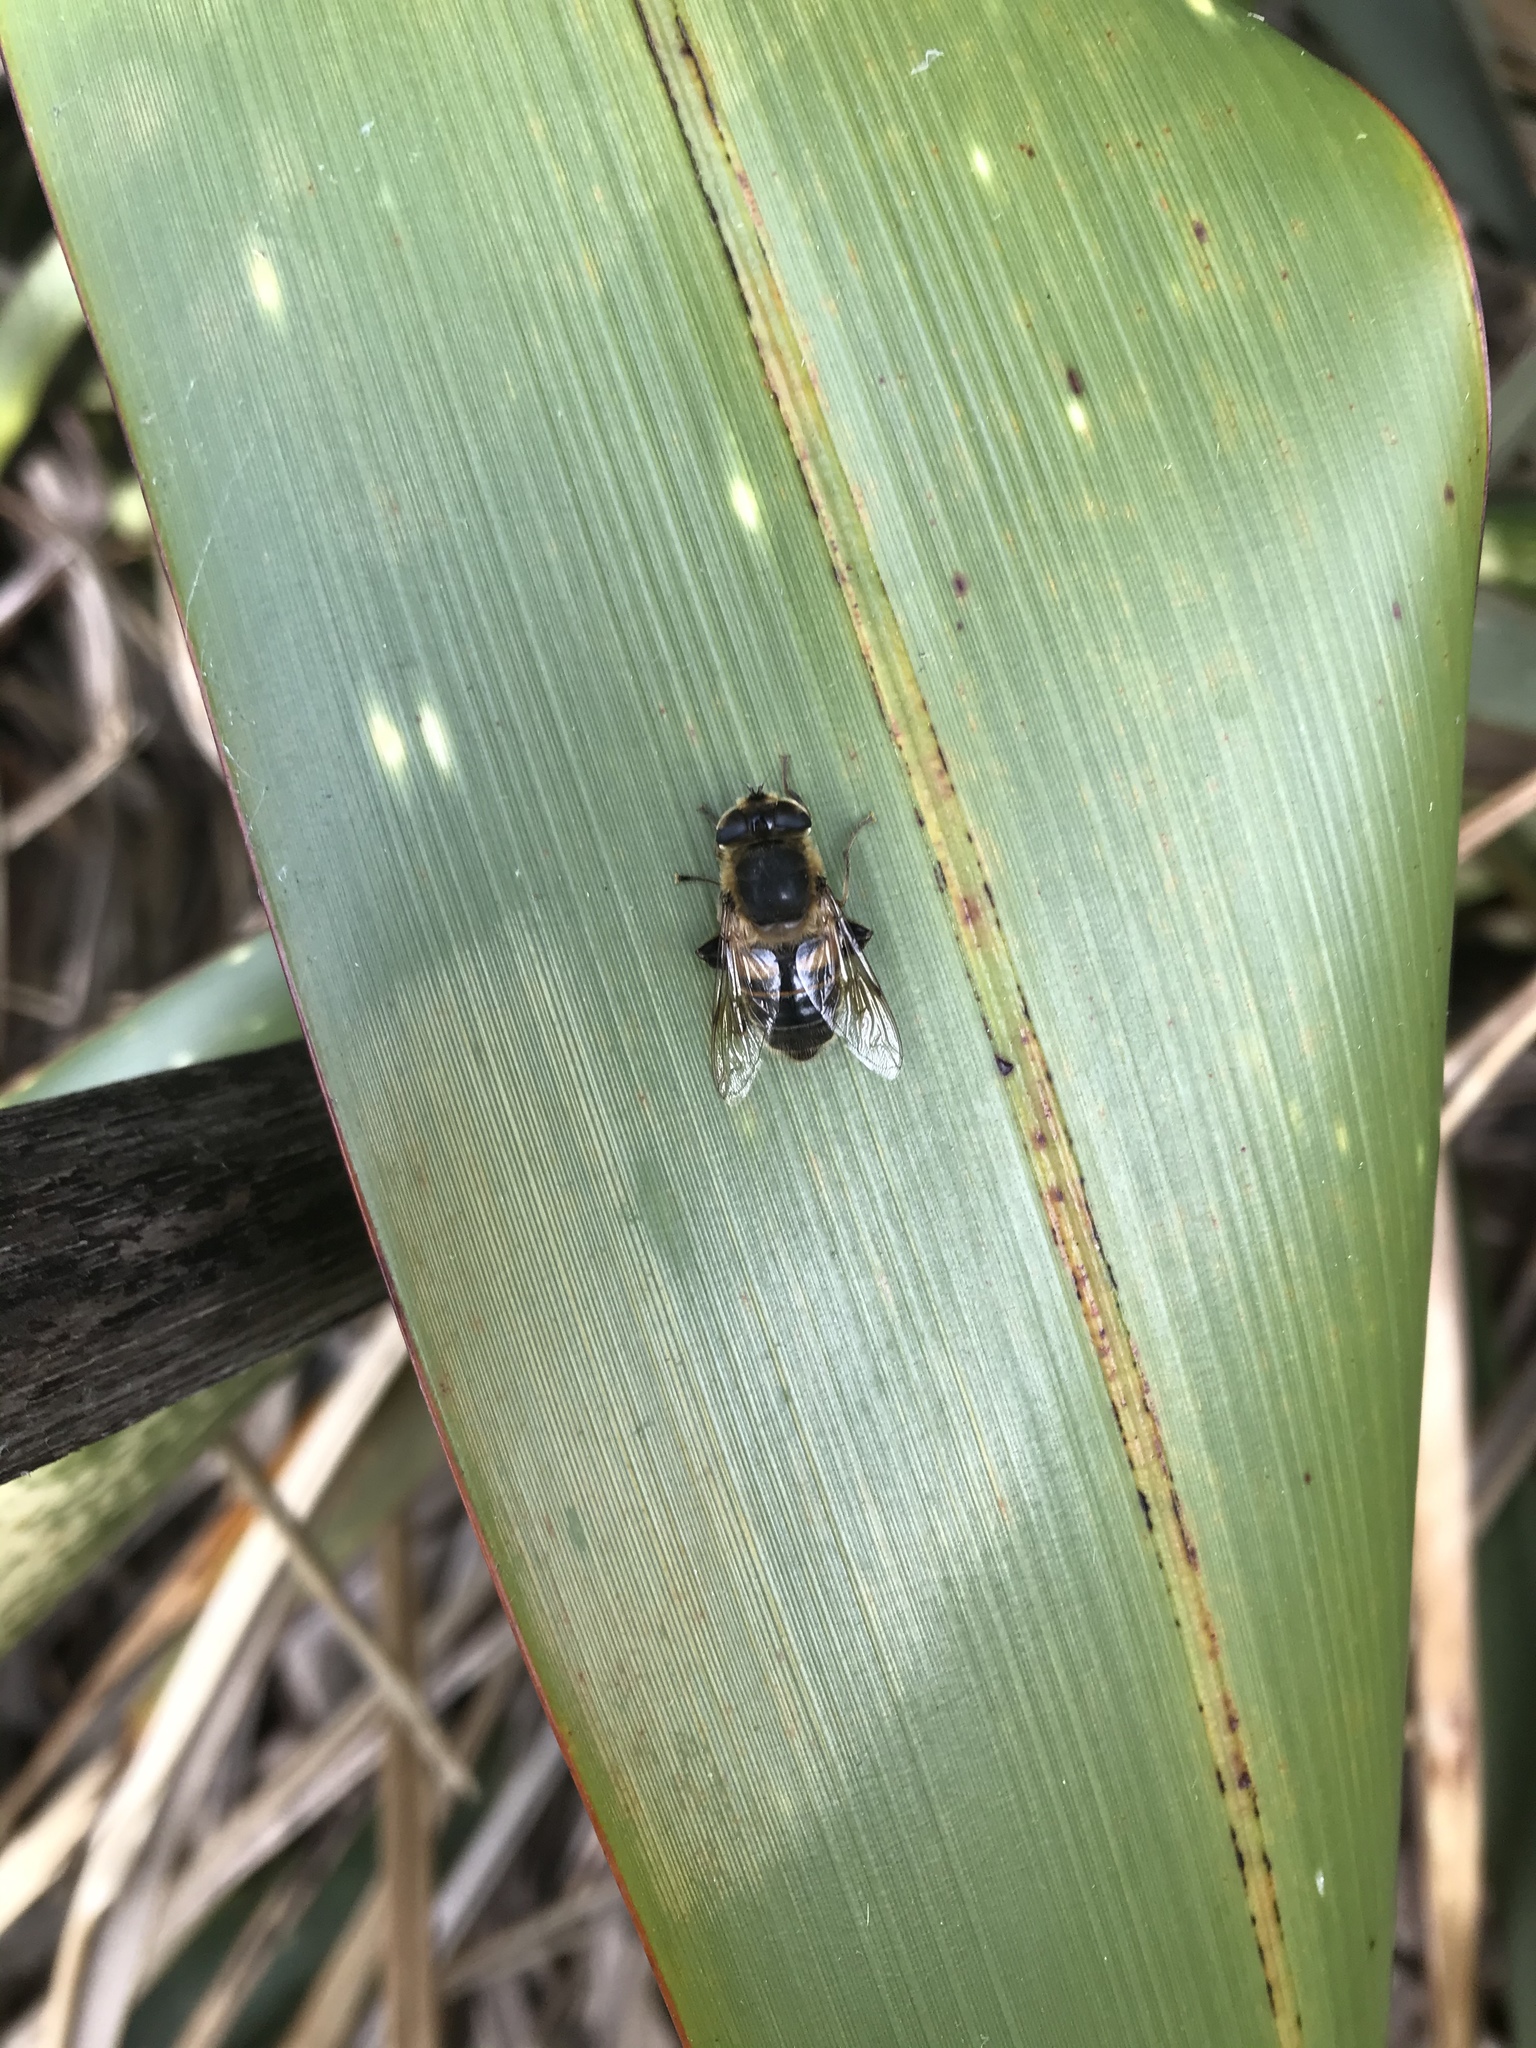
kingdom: Animalia
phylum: Arthropoda
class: Insecta
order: Diptera
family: Syrphidae
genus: Eristalis
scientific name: Eristalis tenax
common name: Drone fly
